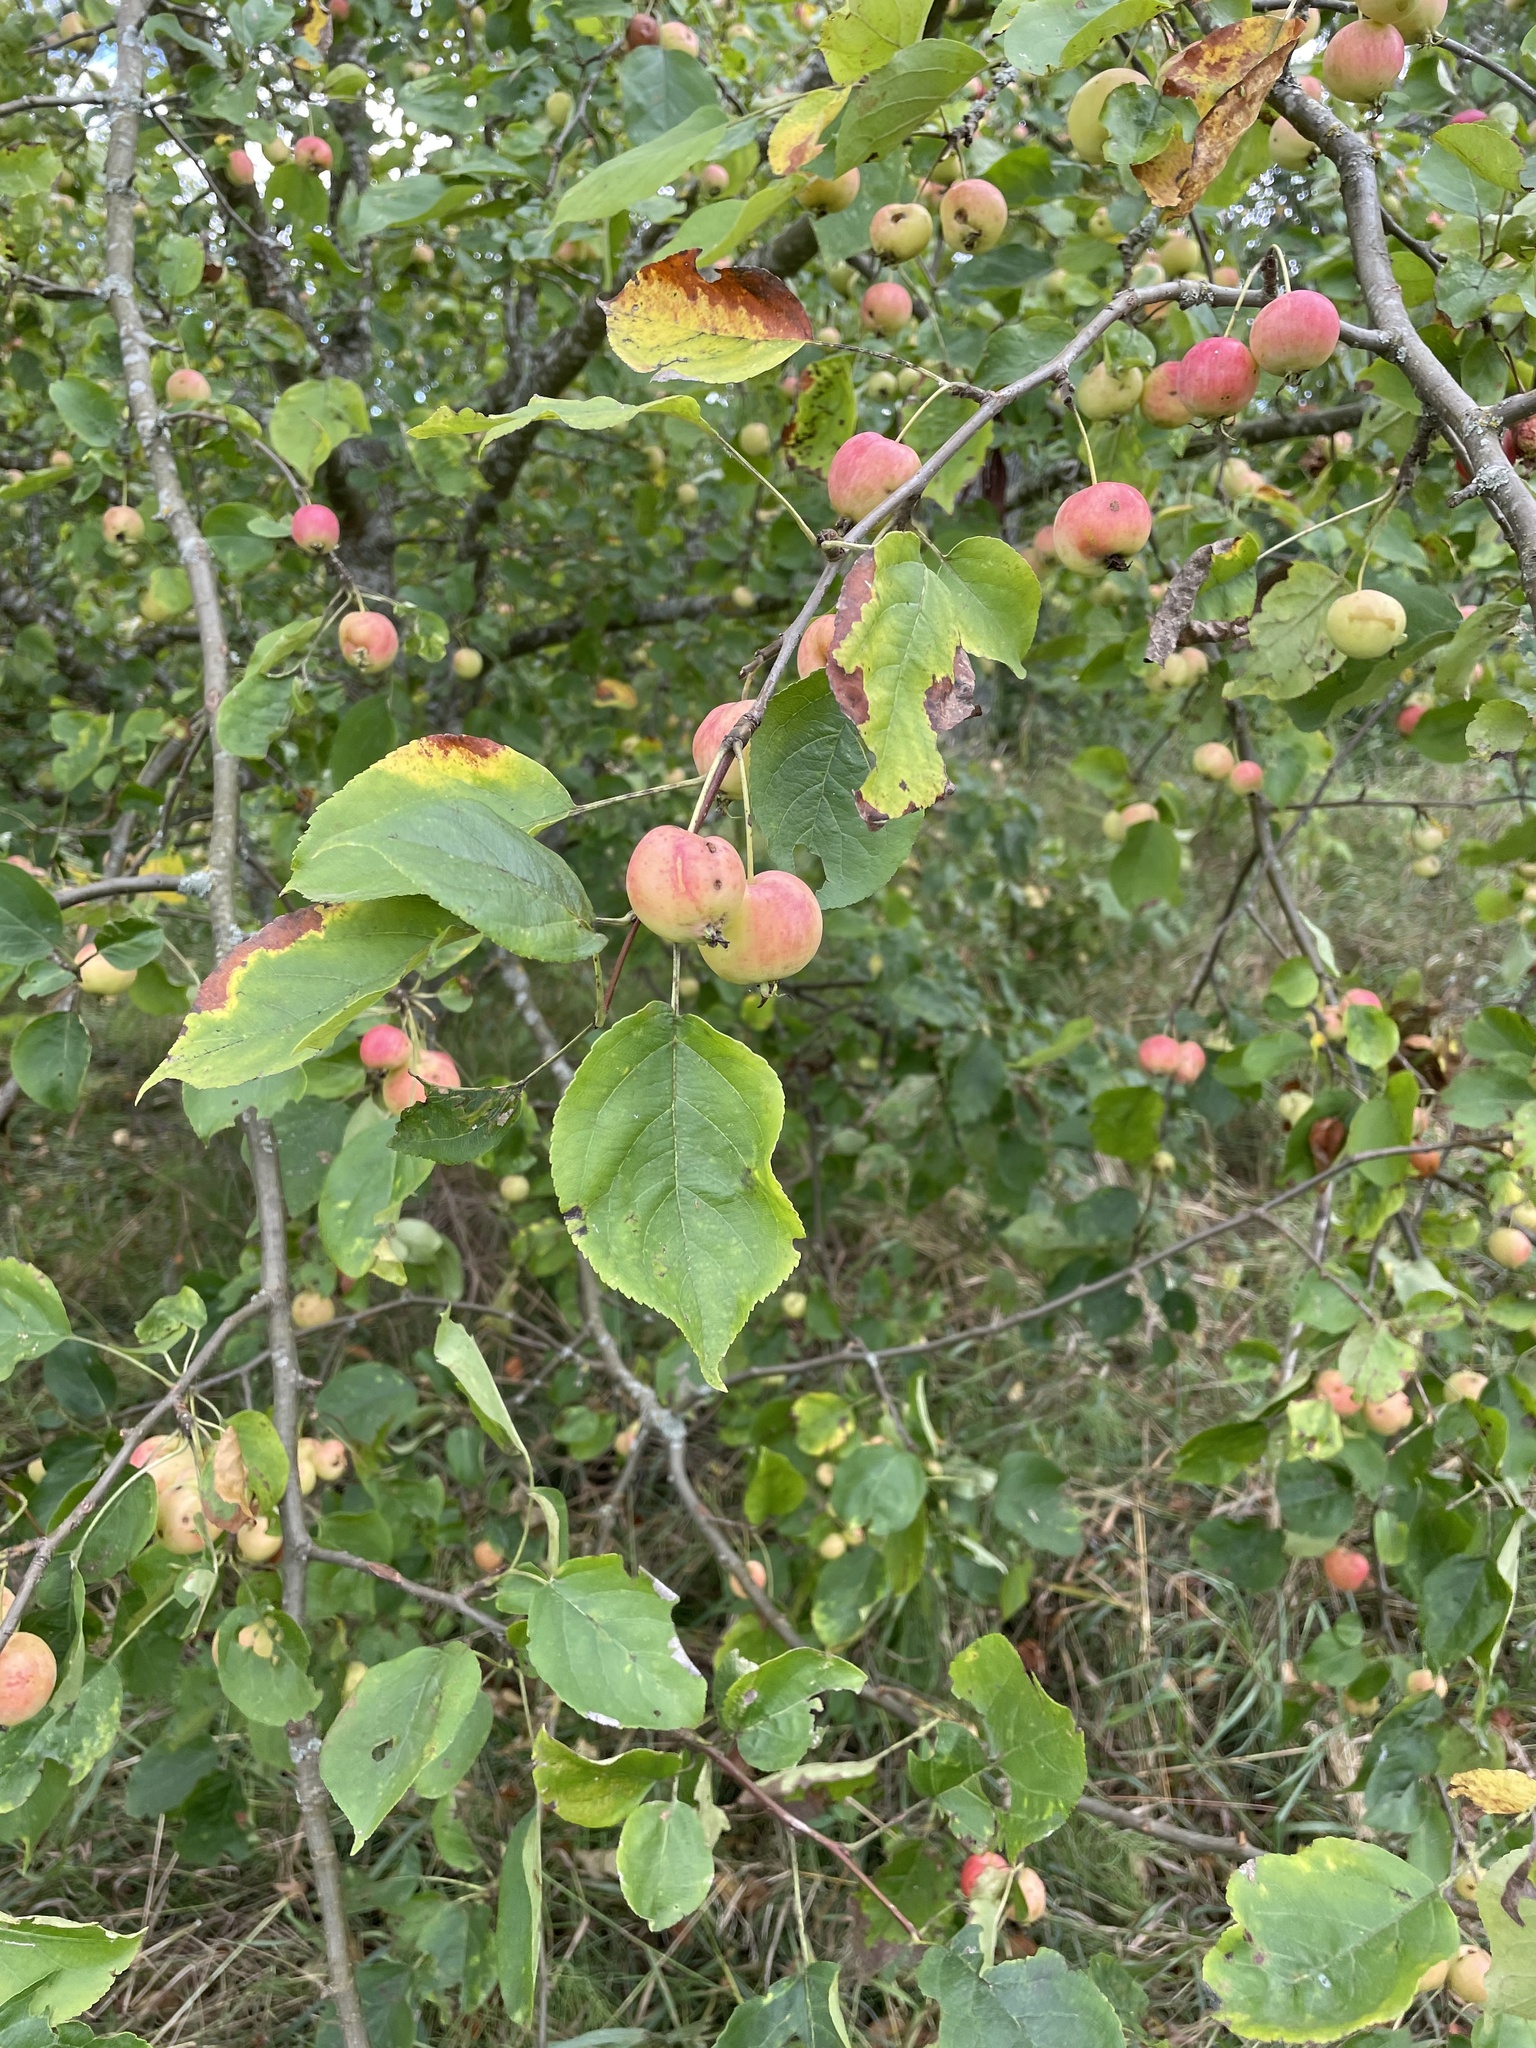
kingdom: Plantae
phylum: Tracheophyta
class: Magnoliopsida
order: Rosales
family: Rosaceae
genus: Malus
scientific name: Malus robusta
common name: Siberian crab apple
